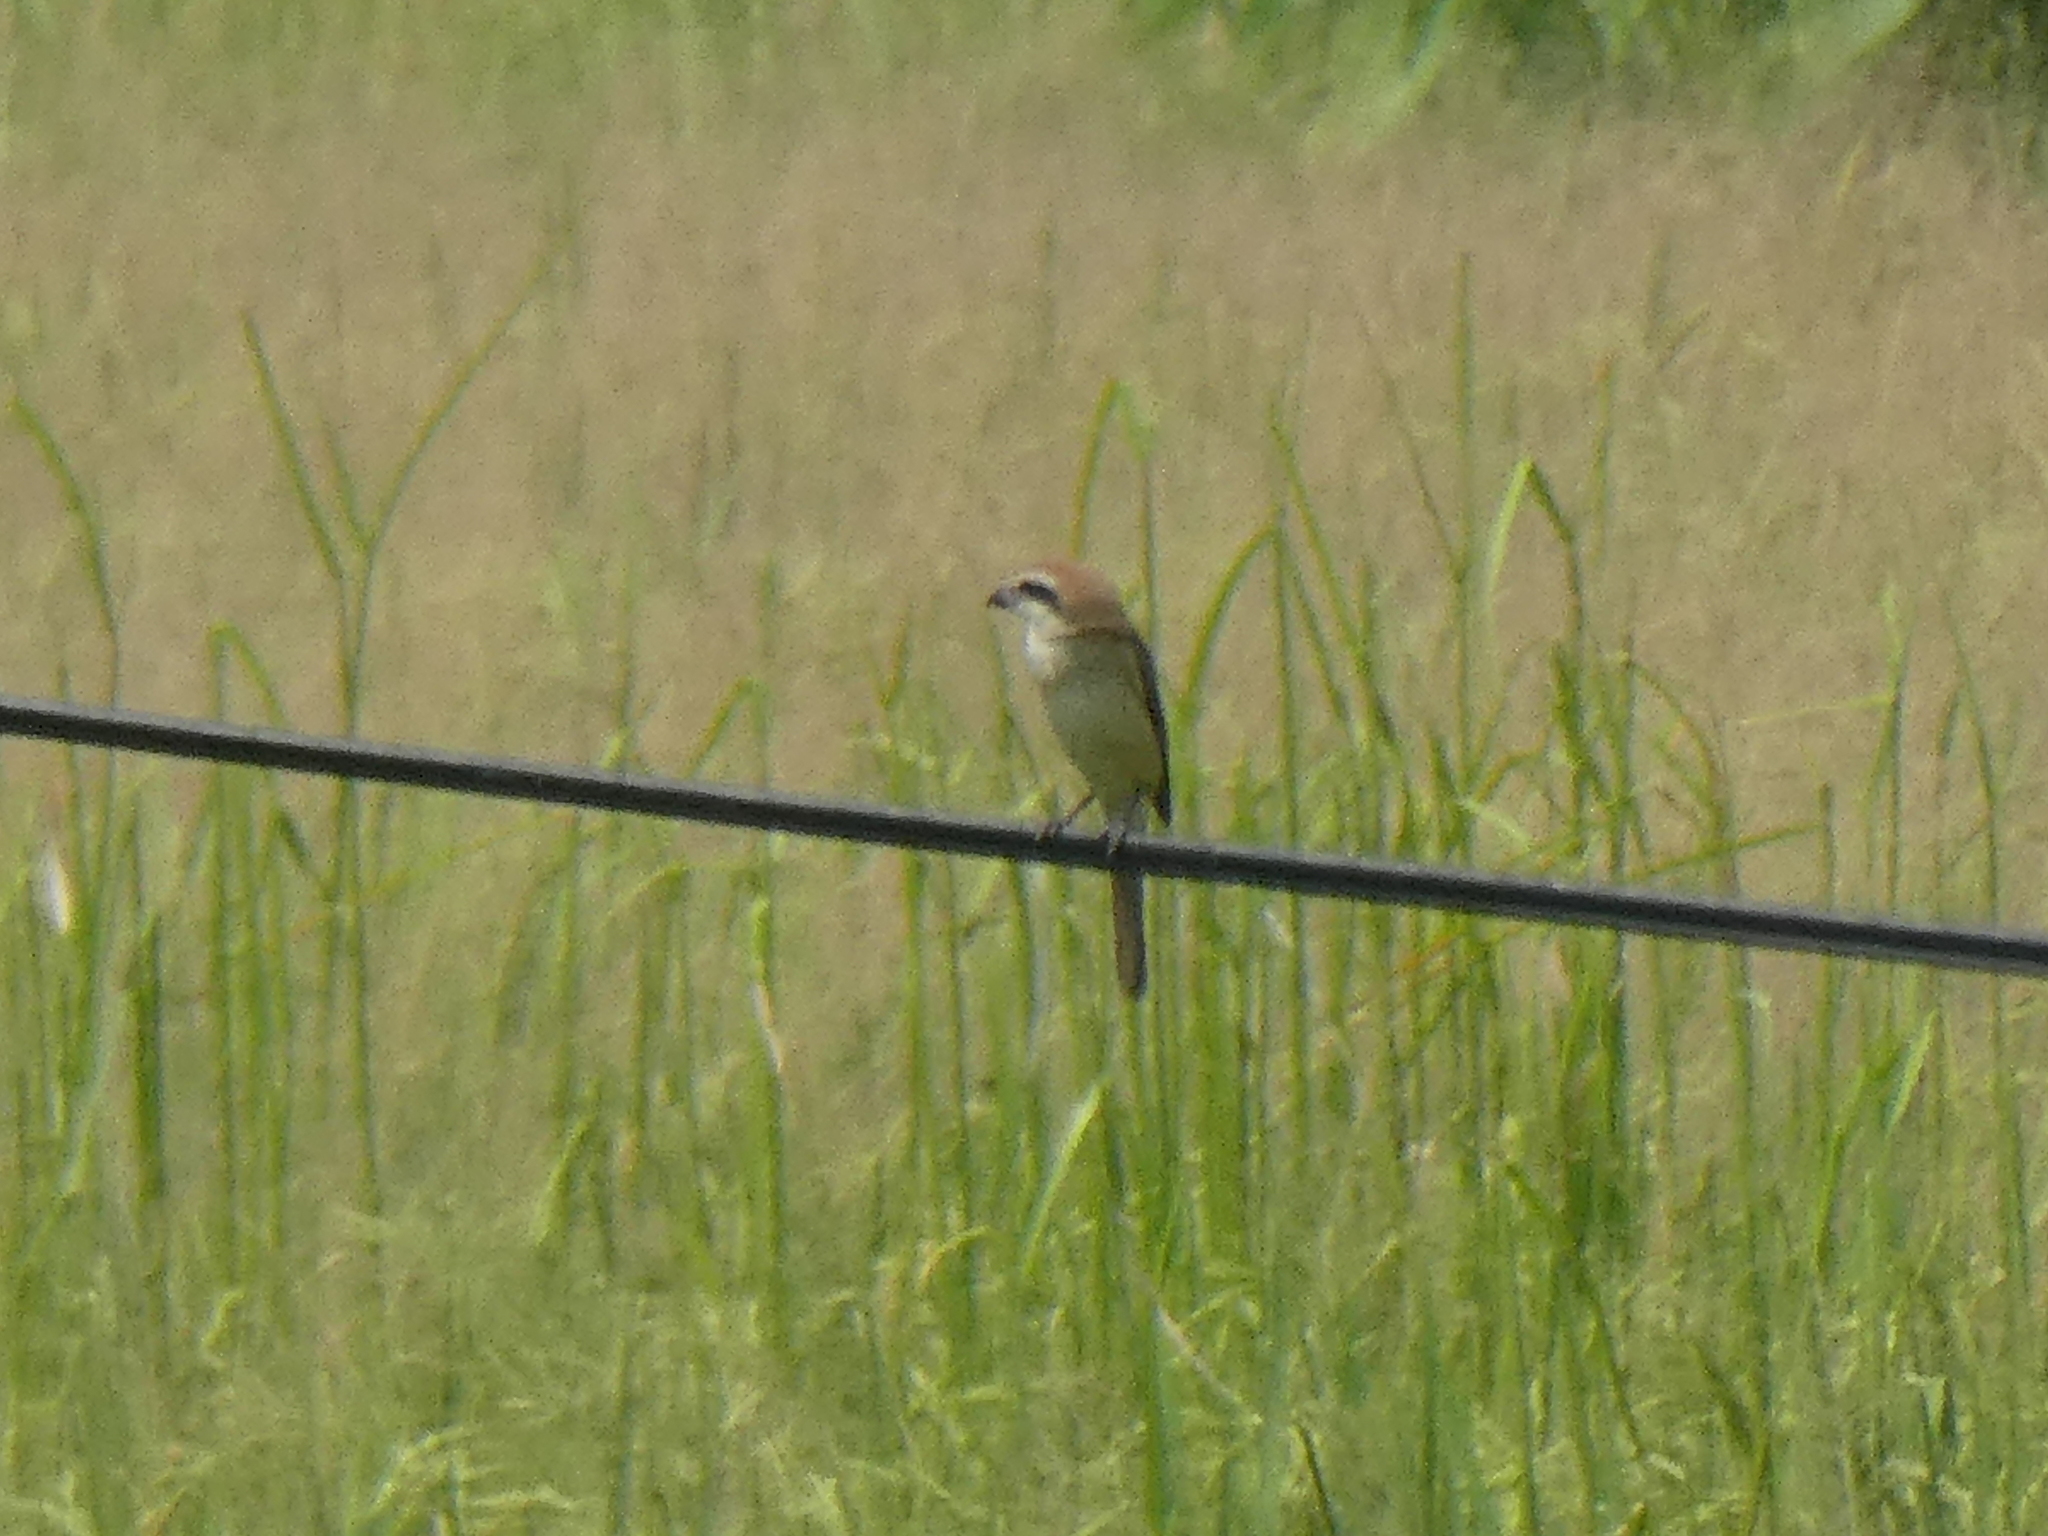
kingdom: Animalia
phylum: Chordata
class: Aves
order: Passeriformes
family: Laniidae
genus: Lanius
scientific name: Lanius cristatus
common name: Brown shrike
